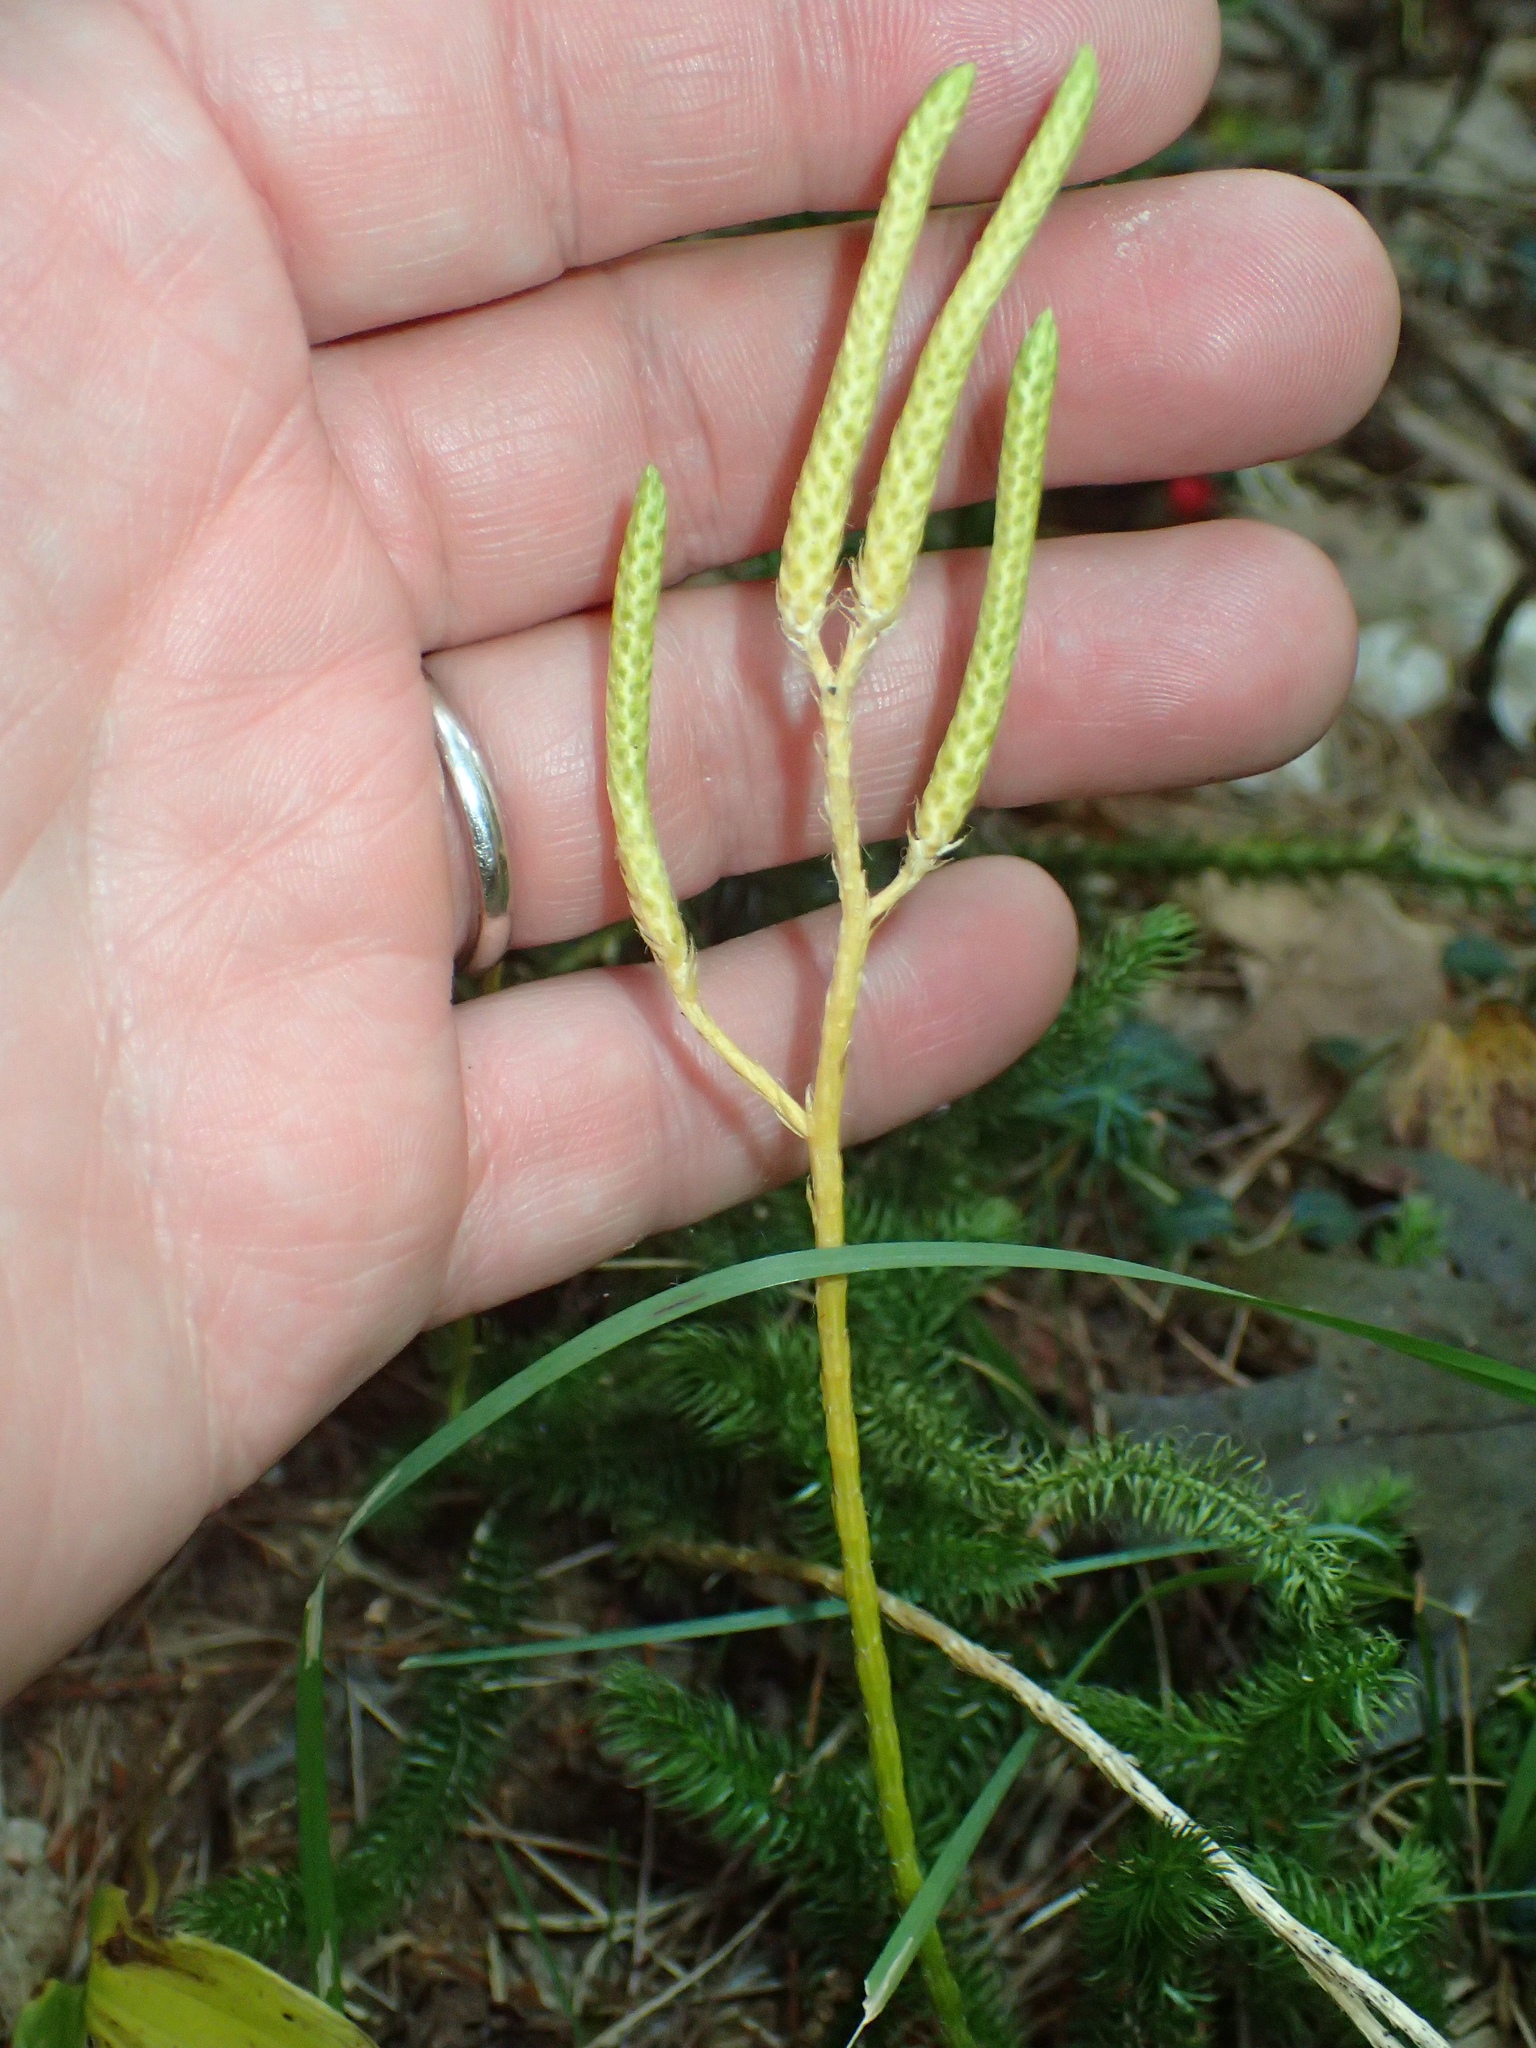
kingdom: Plantae
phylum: Tracheophyta
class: Lycopodiopsida
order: Lycopodiales
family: Lycopodiaceae
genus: Lycopodium
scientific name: Lycopodium clavatum
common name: Stag's-horn clubmoss
